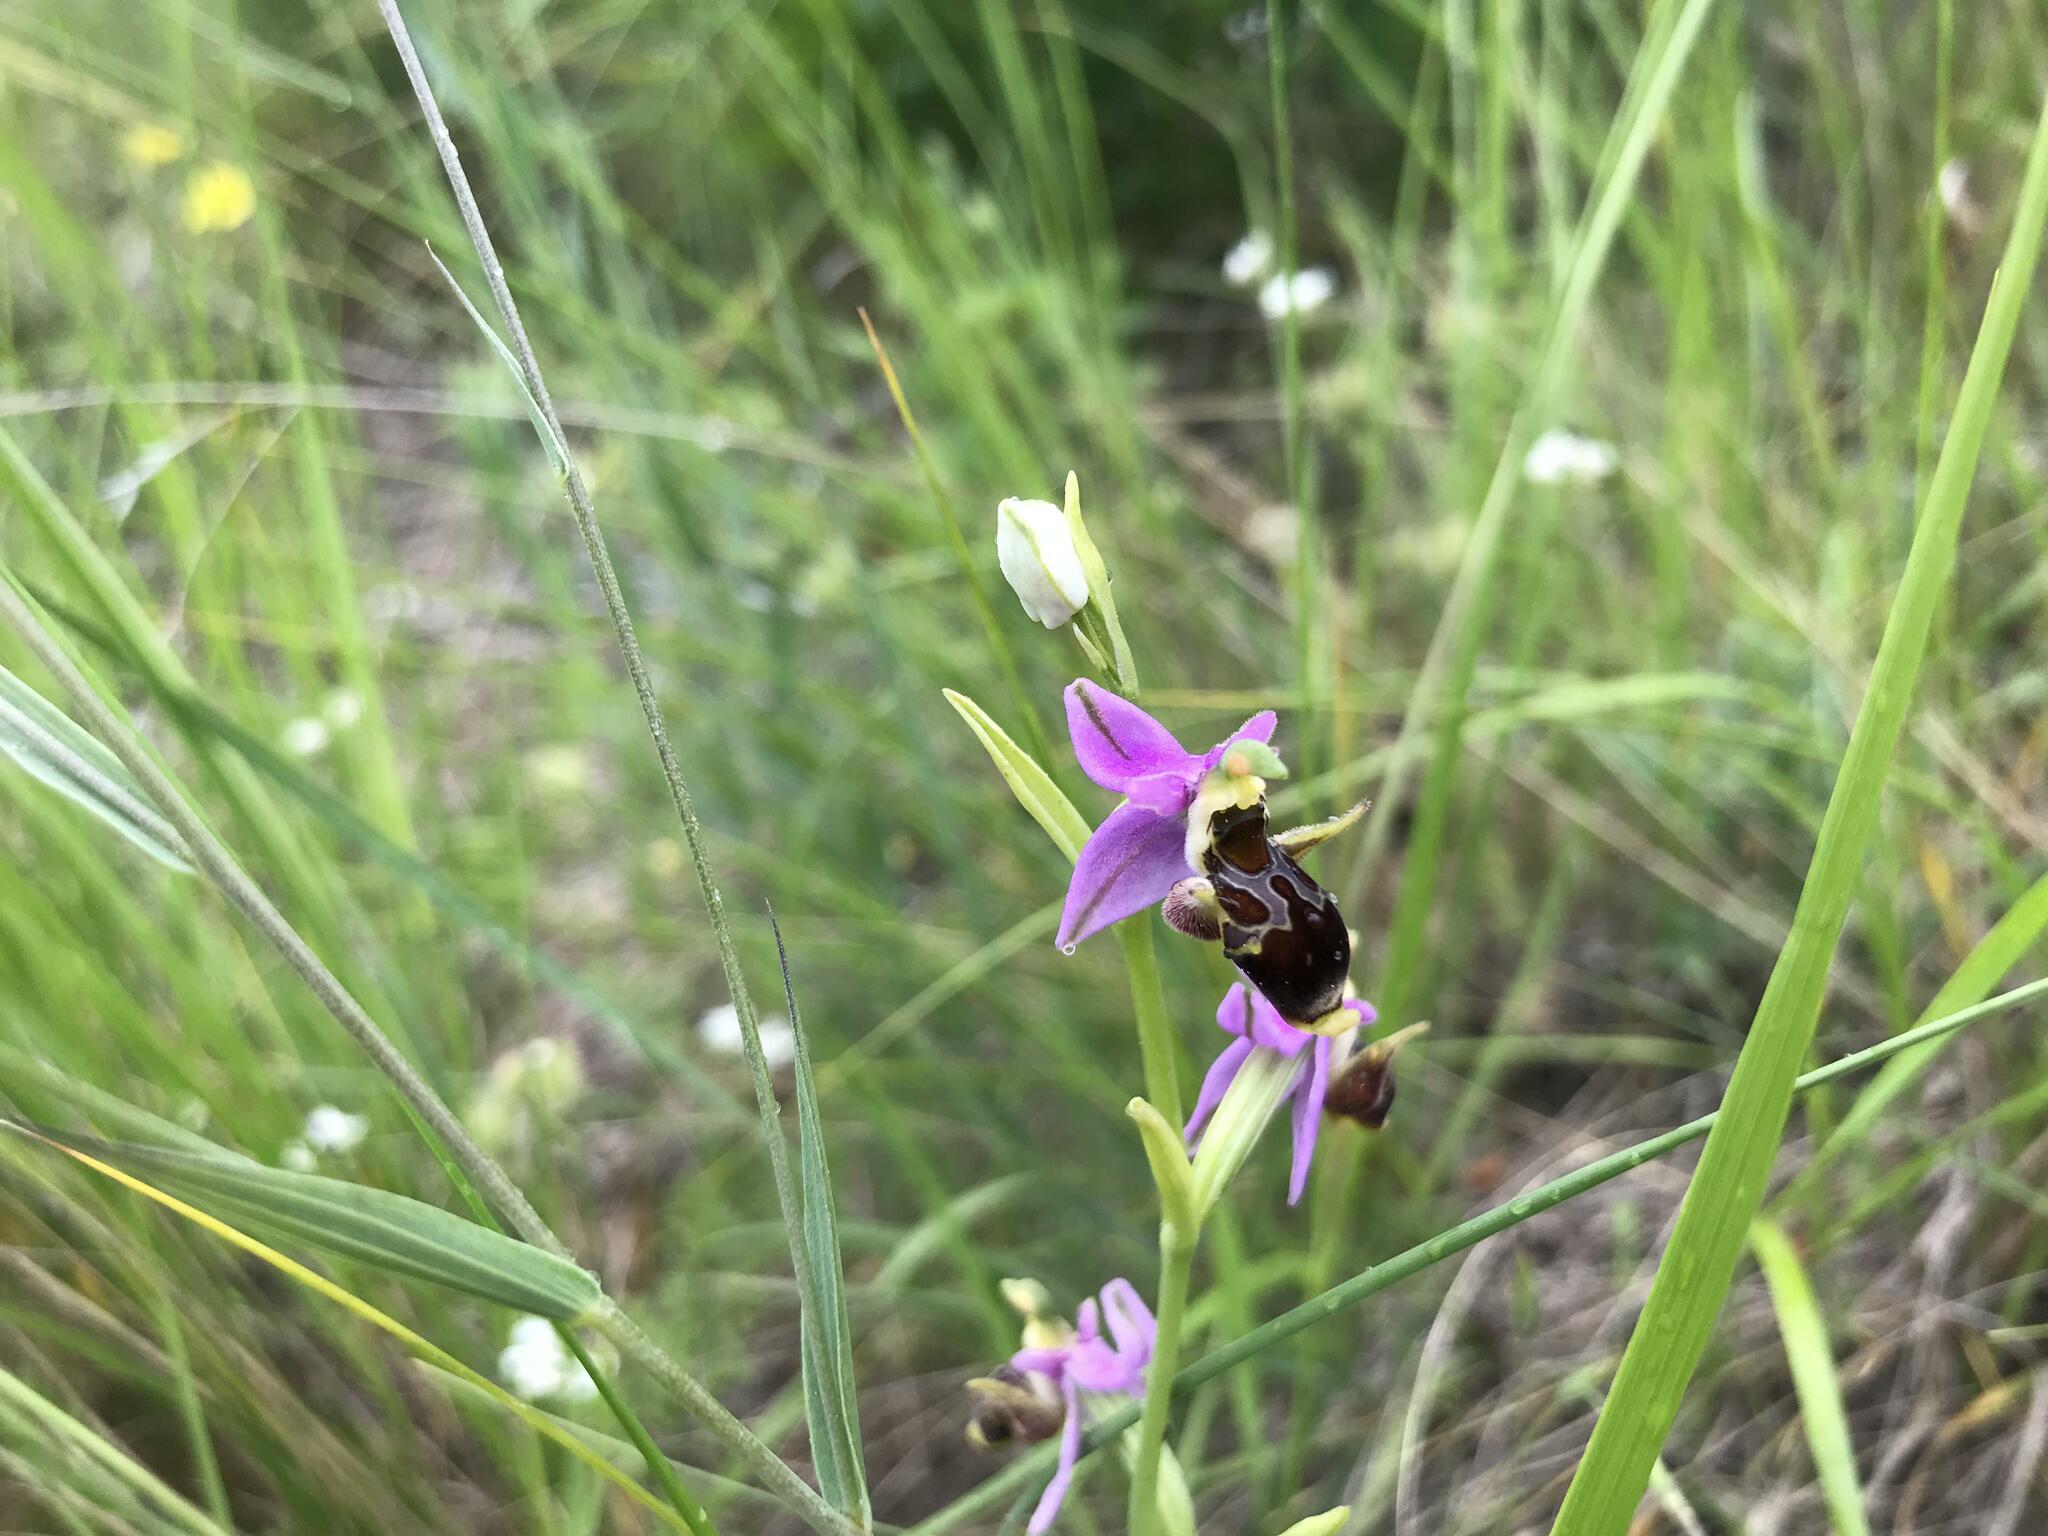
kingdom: Plantae
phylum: Tracheophyta
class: Liliopsida
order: Asparagales
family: Orchidaceae
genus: Ophrys
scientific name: Ophrys
